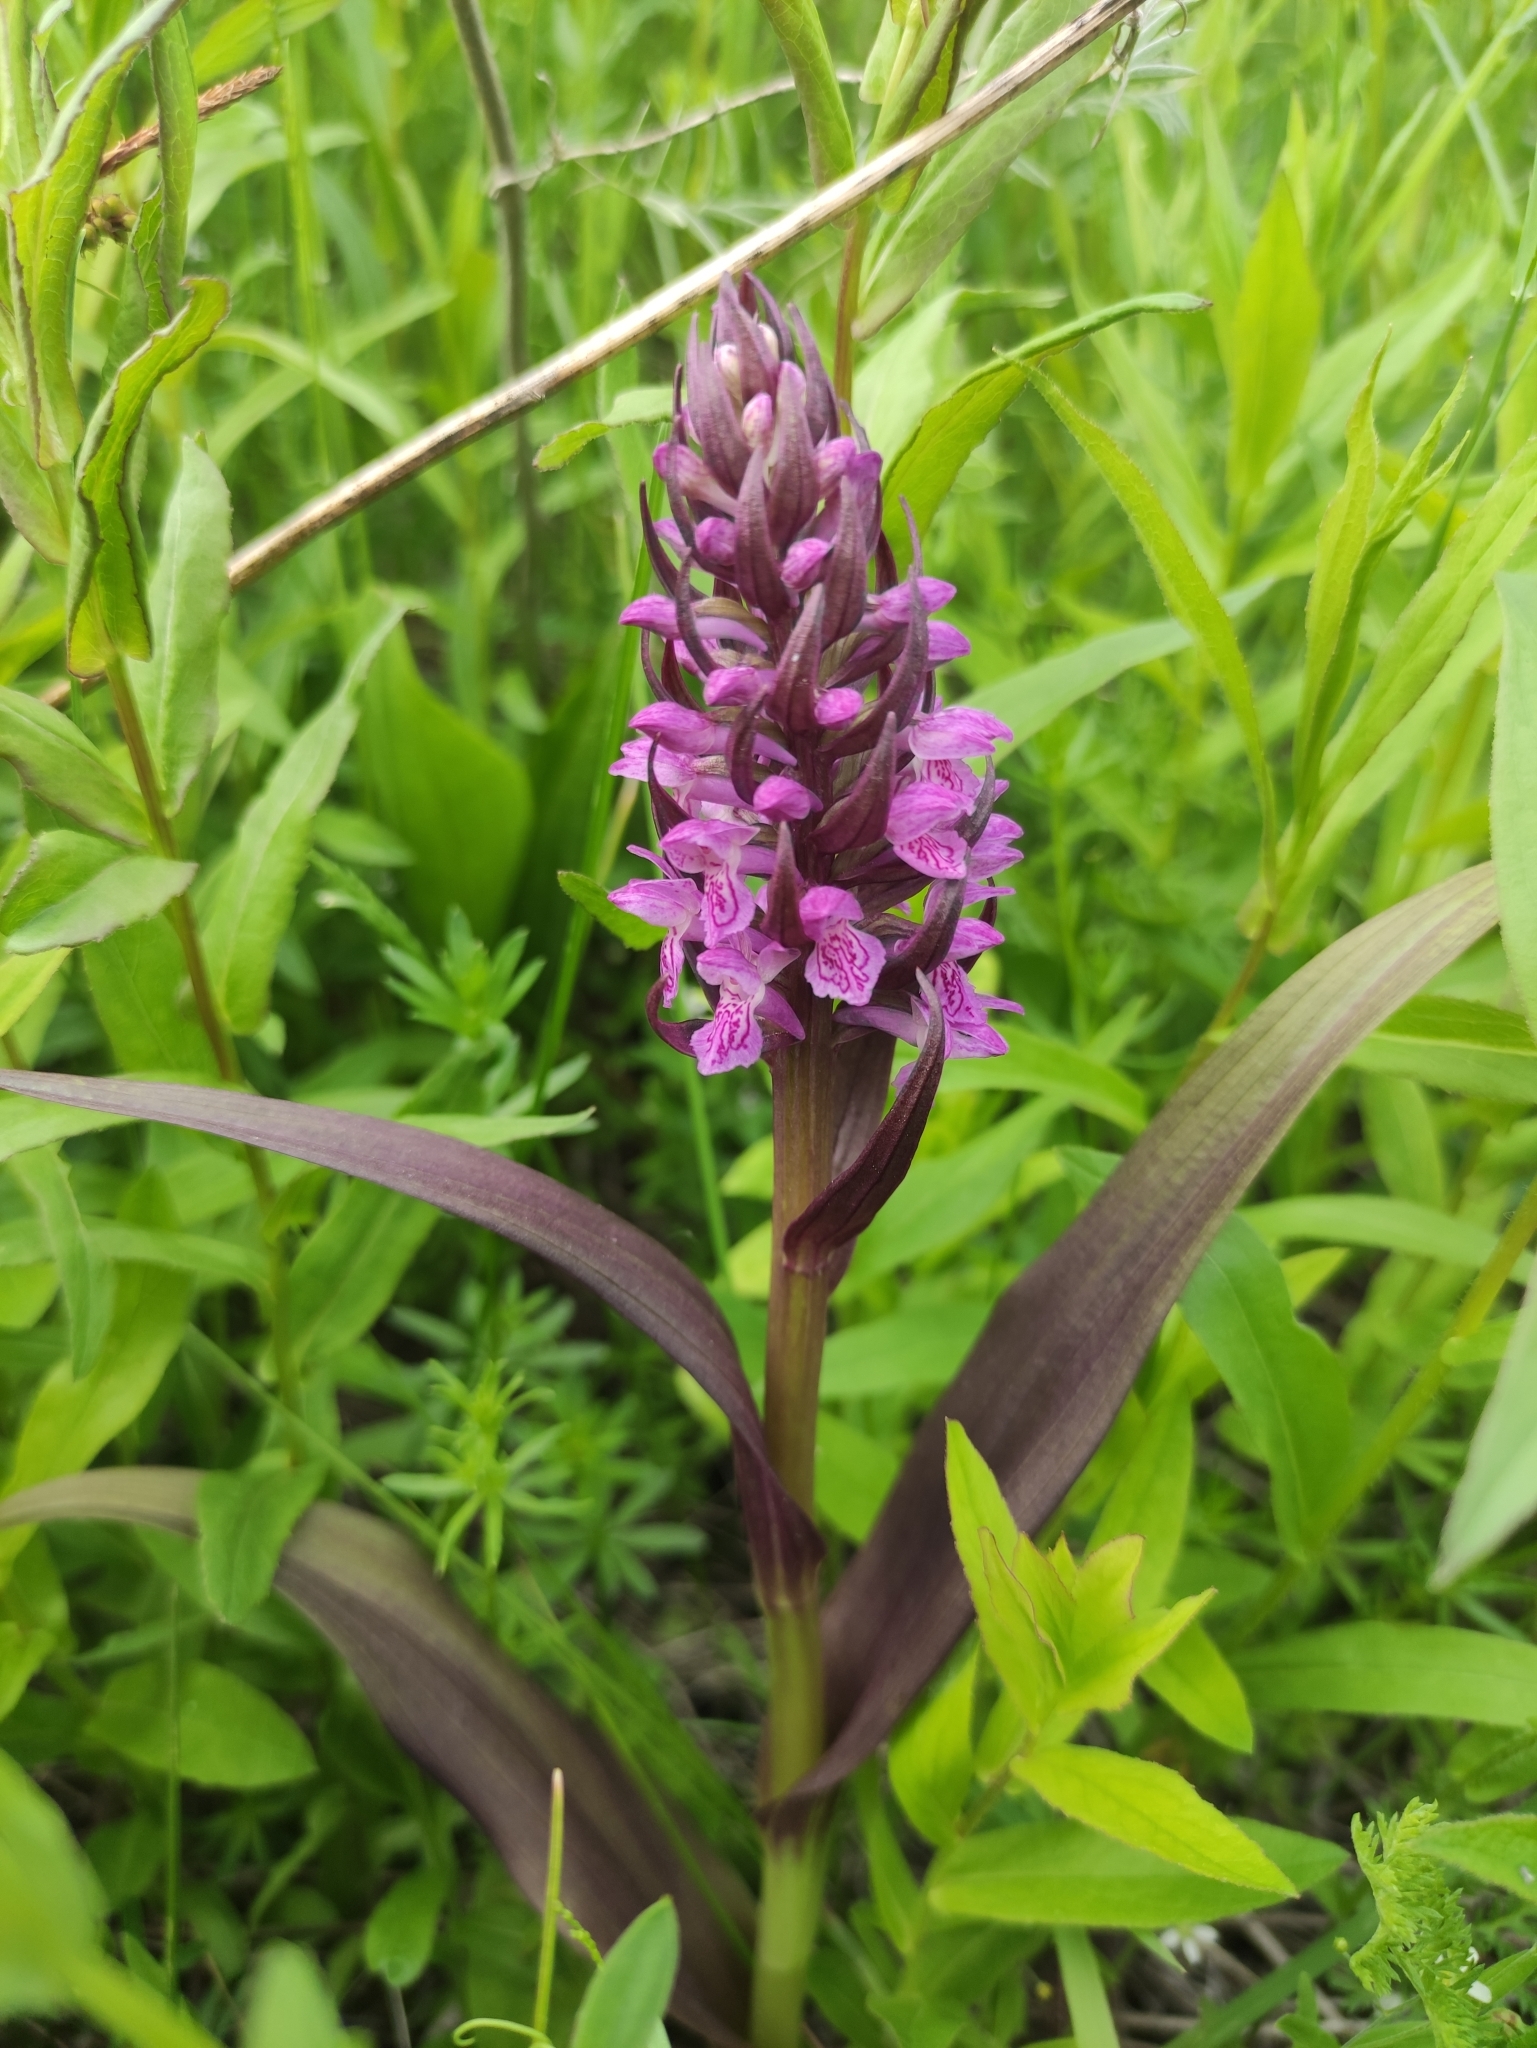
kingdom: Plantae
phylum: Tracheophyta
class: Liliopsida
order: Asparagales
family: Orchidaceae
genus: Dactylorhiza
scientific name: Dactylorhiza incarnata
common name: Early marsh-orchid
